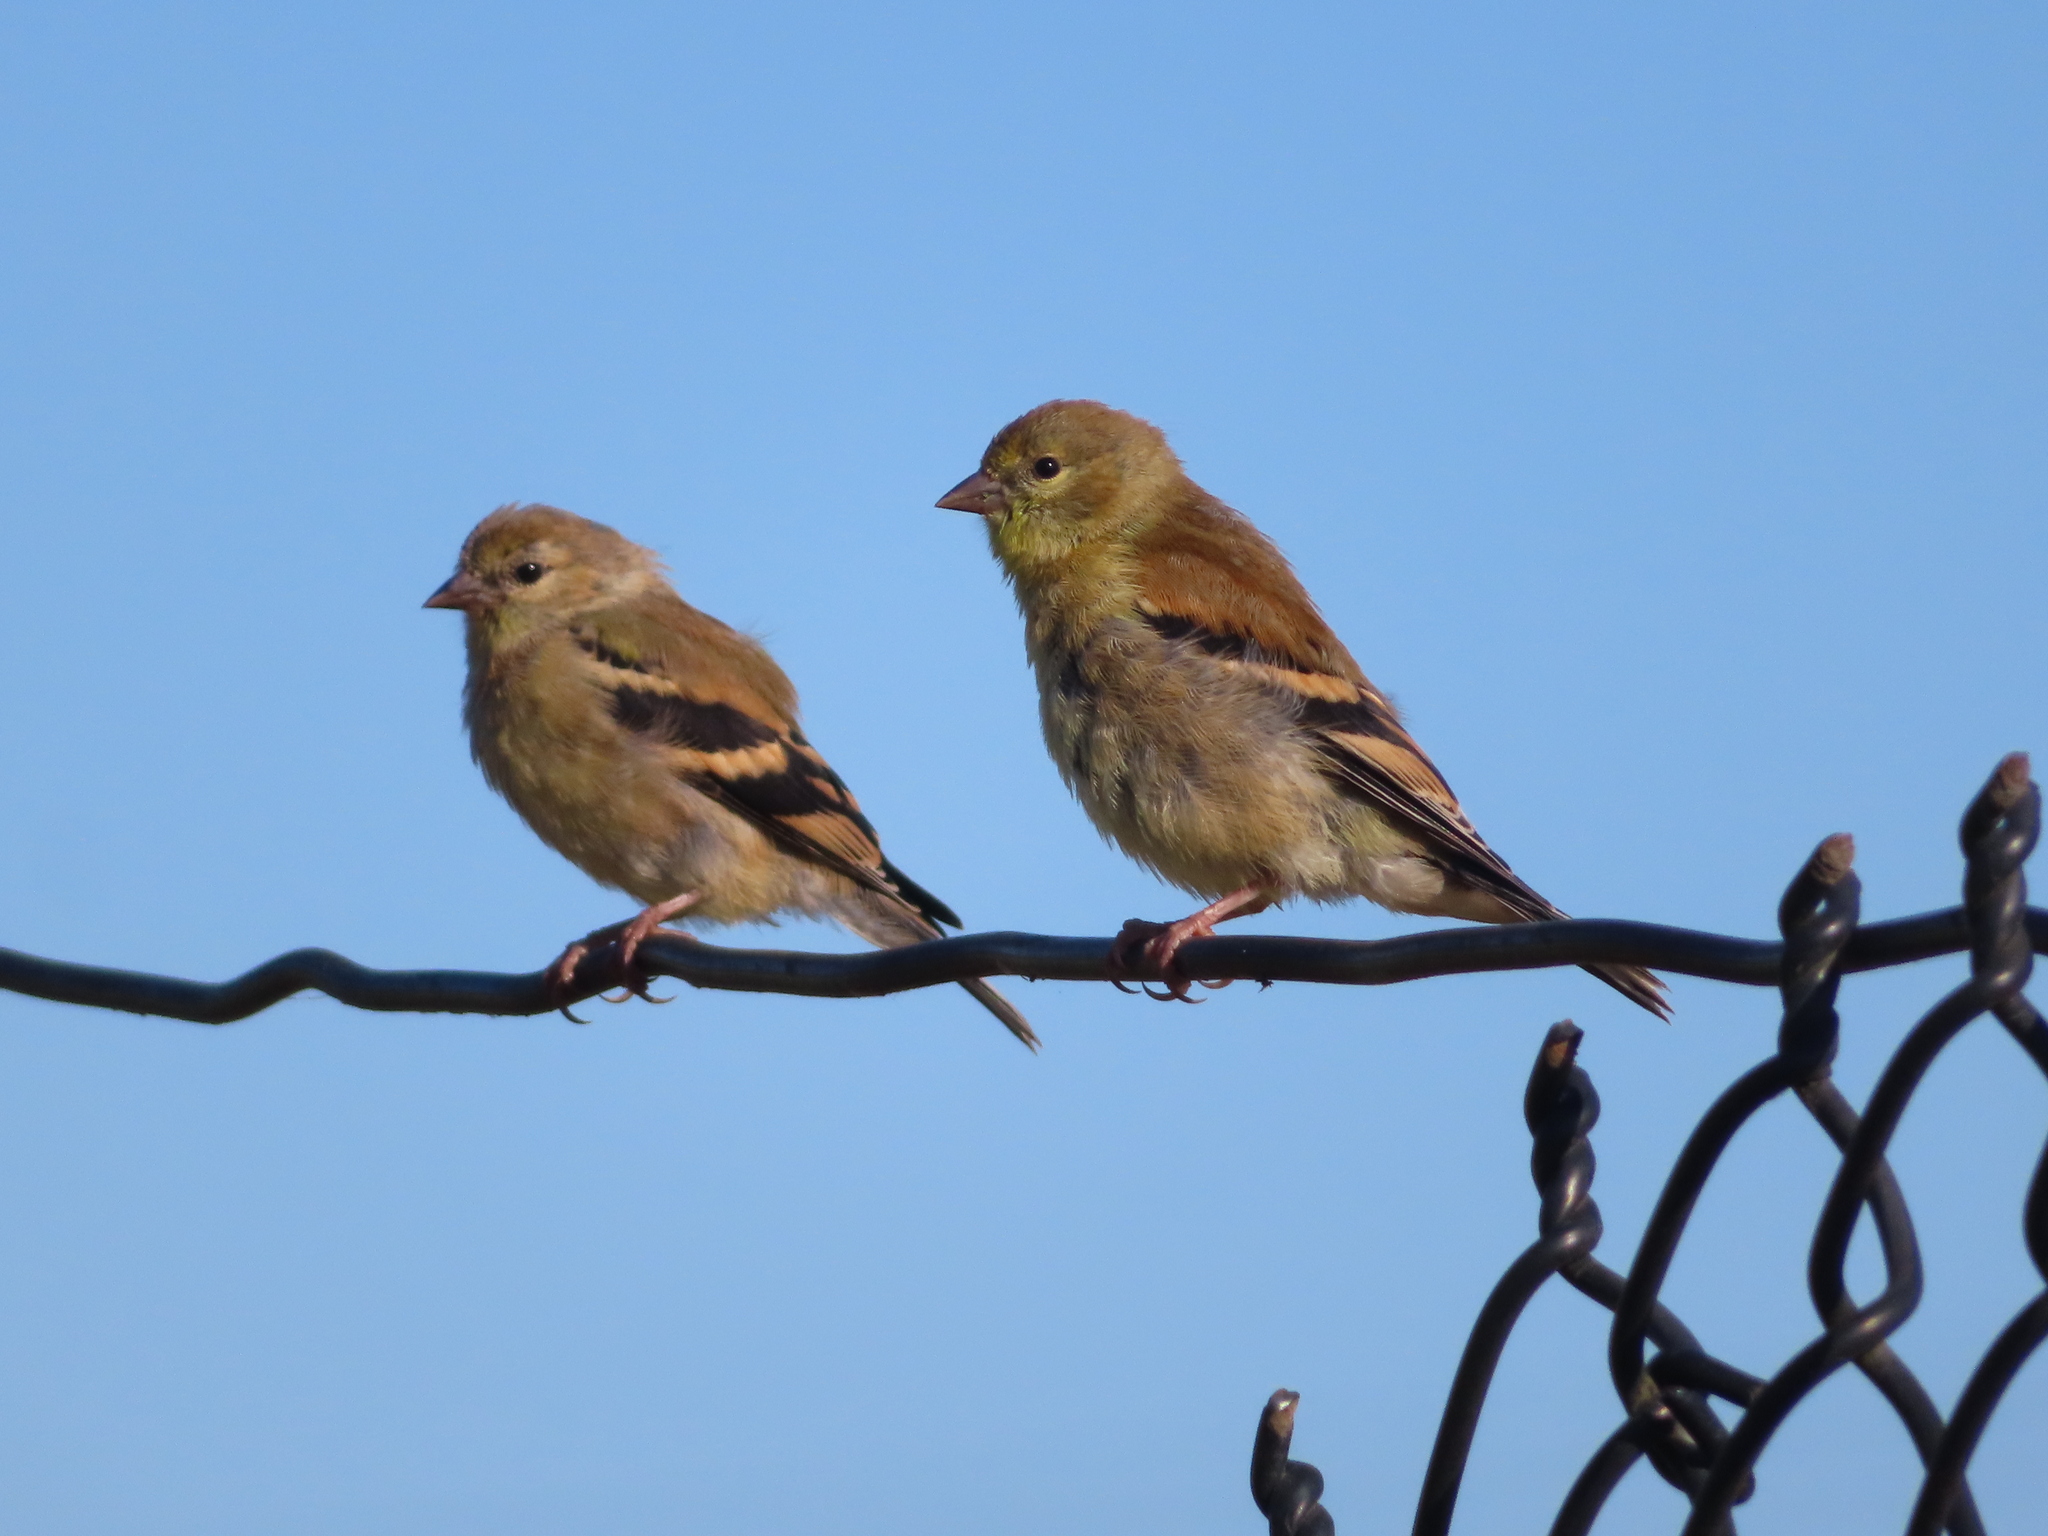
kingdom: Animalia
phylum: Chordata
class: Aves
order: Passeriformes
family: Fringillidae
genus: Spinus
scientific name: Spinus tristis
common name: American goldfinch
